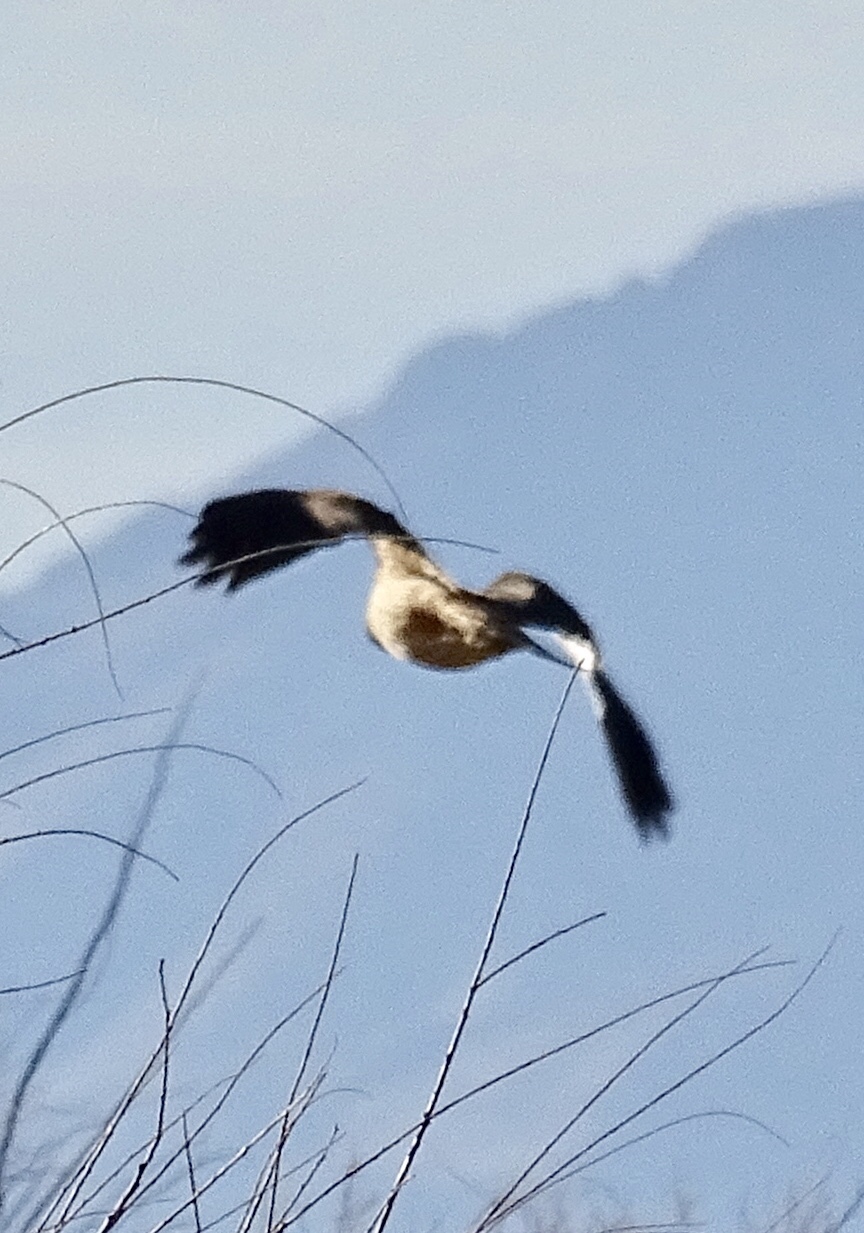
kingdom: Animalia
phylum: Chordata
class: Aves
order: Accipitriformes
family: Accipitridae
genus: Buteo
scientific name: Buteo jamaicensis
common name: Red-tailed hawk
